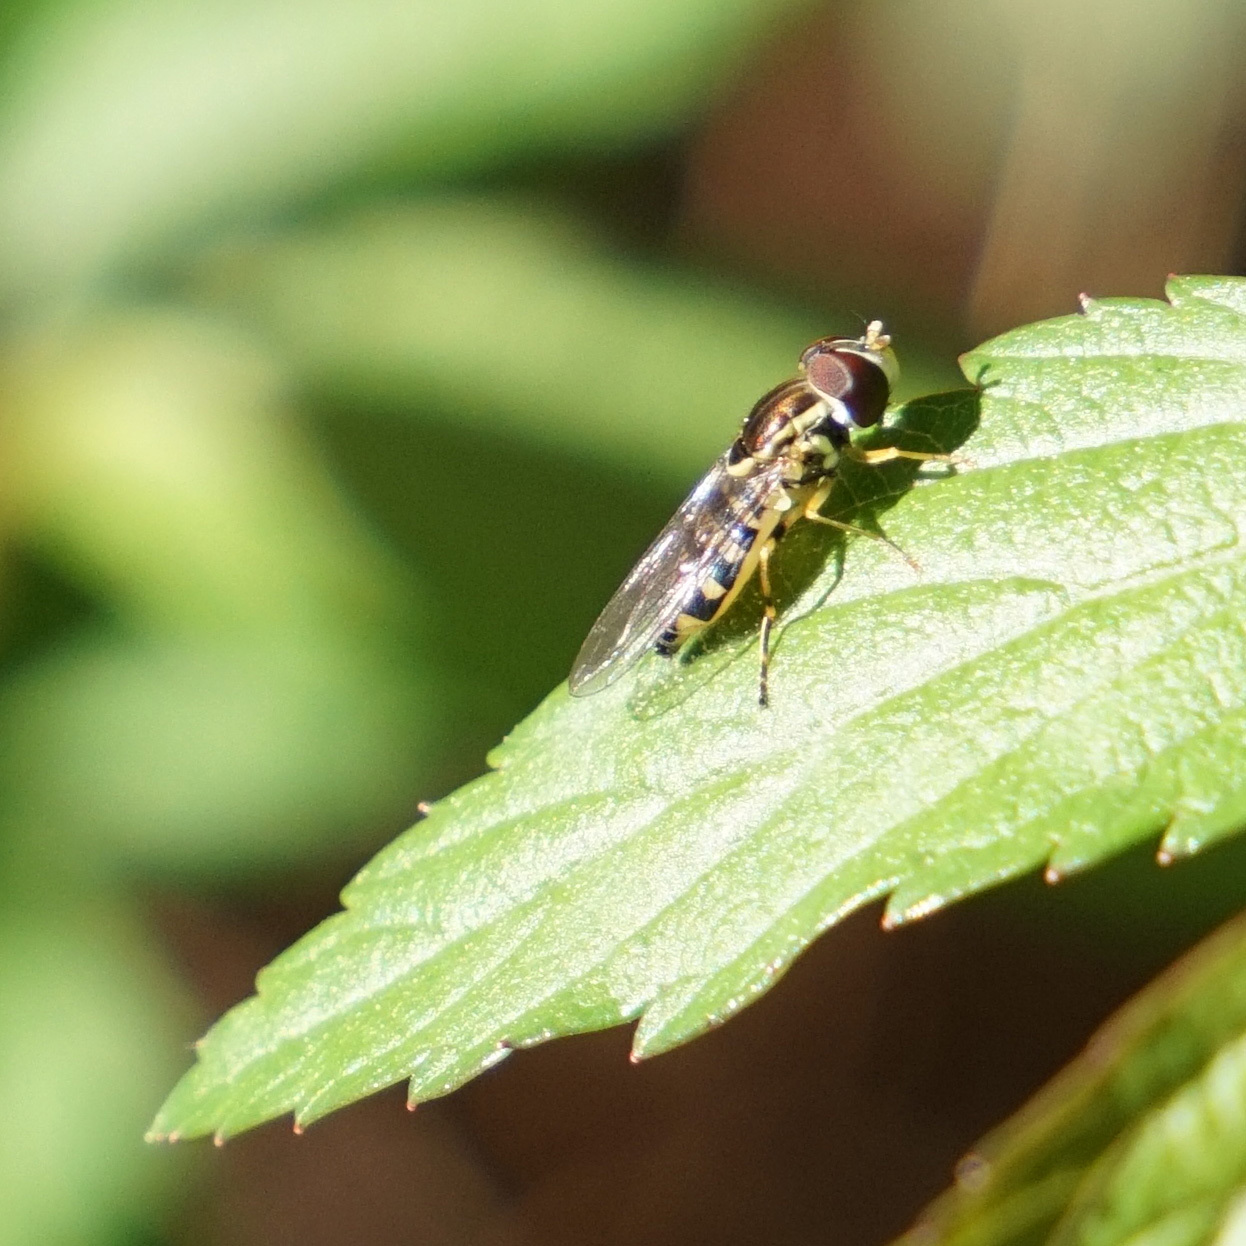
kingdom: Animalia
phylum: Arthropoda
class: Insecta
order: Diptera
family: Syrphidae
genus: Toxomerus
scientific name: Toxomerus geminatus
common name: Eastern calligrapher
